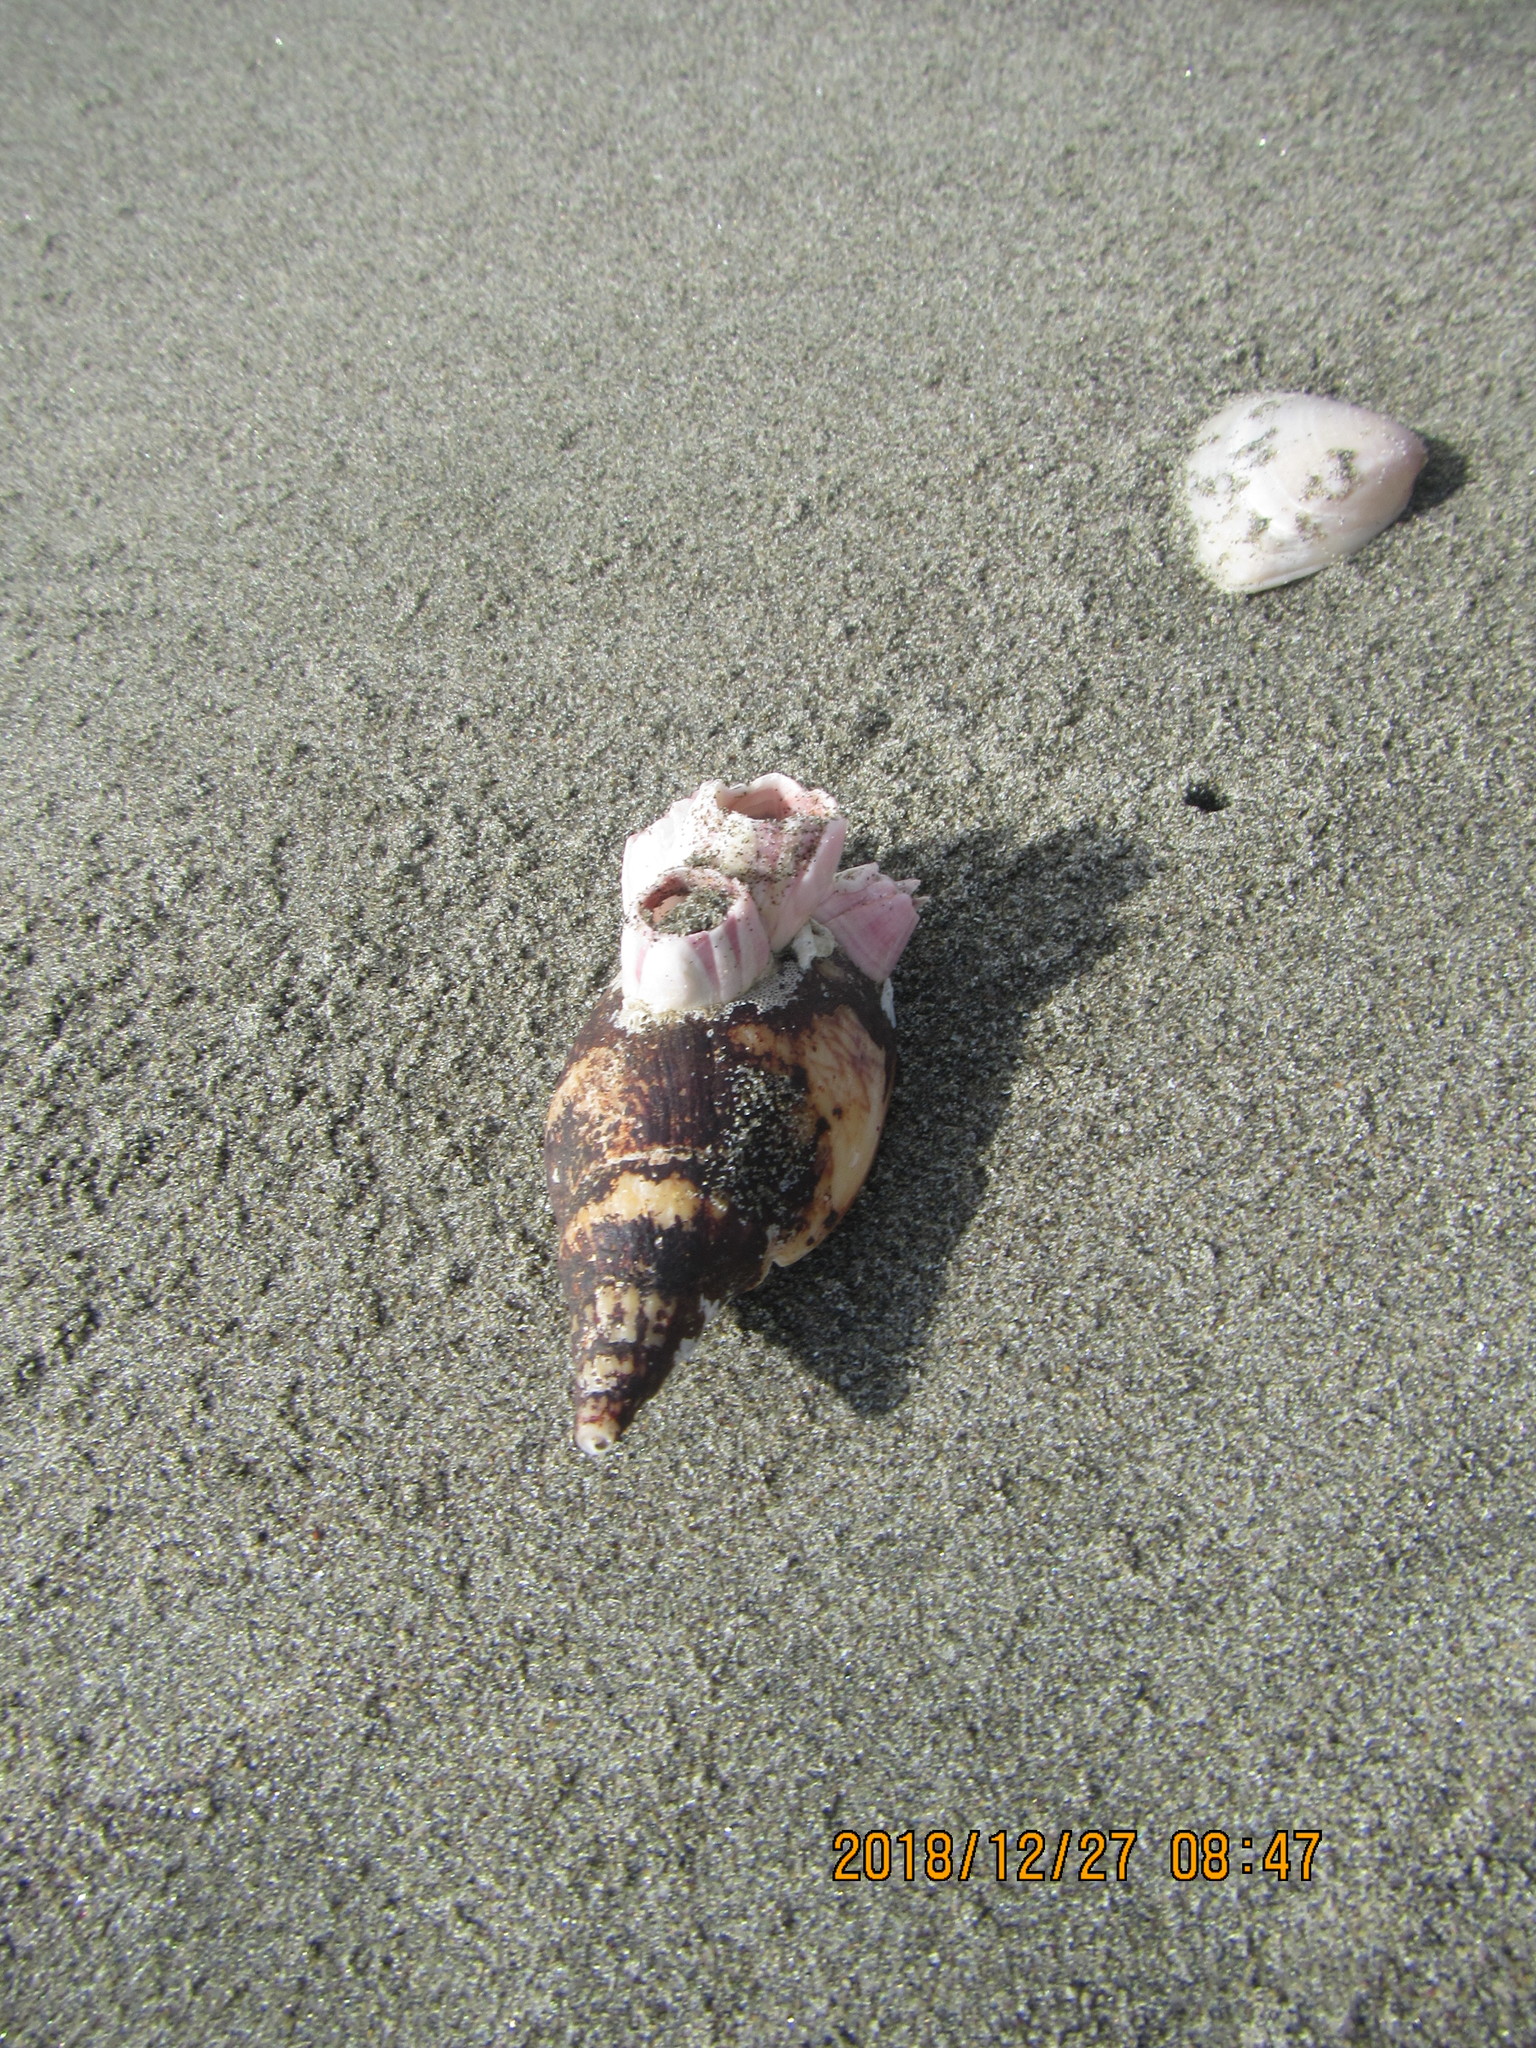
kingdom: Animalia
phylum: Mollusca
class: Gastropoda
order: Neogastropoda
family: Volutidae
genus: Alcithoe
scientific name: Alcithoe fusus
